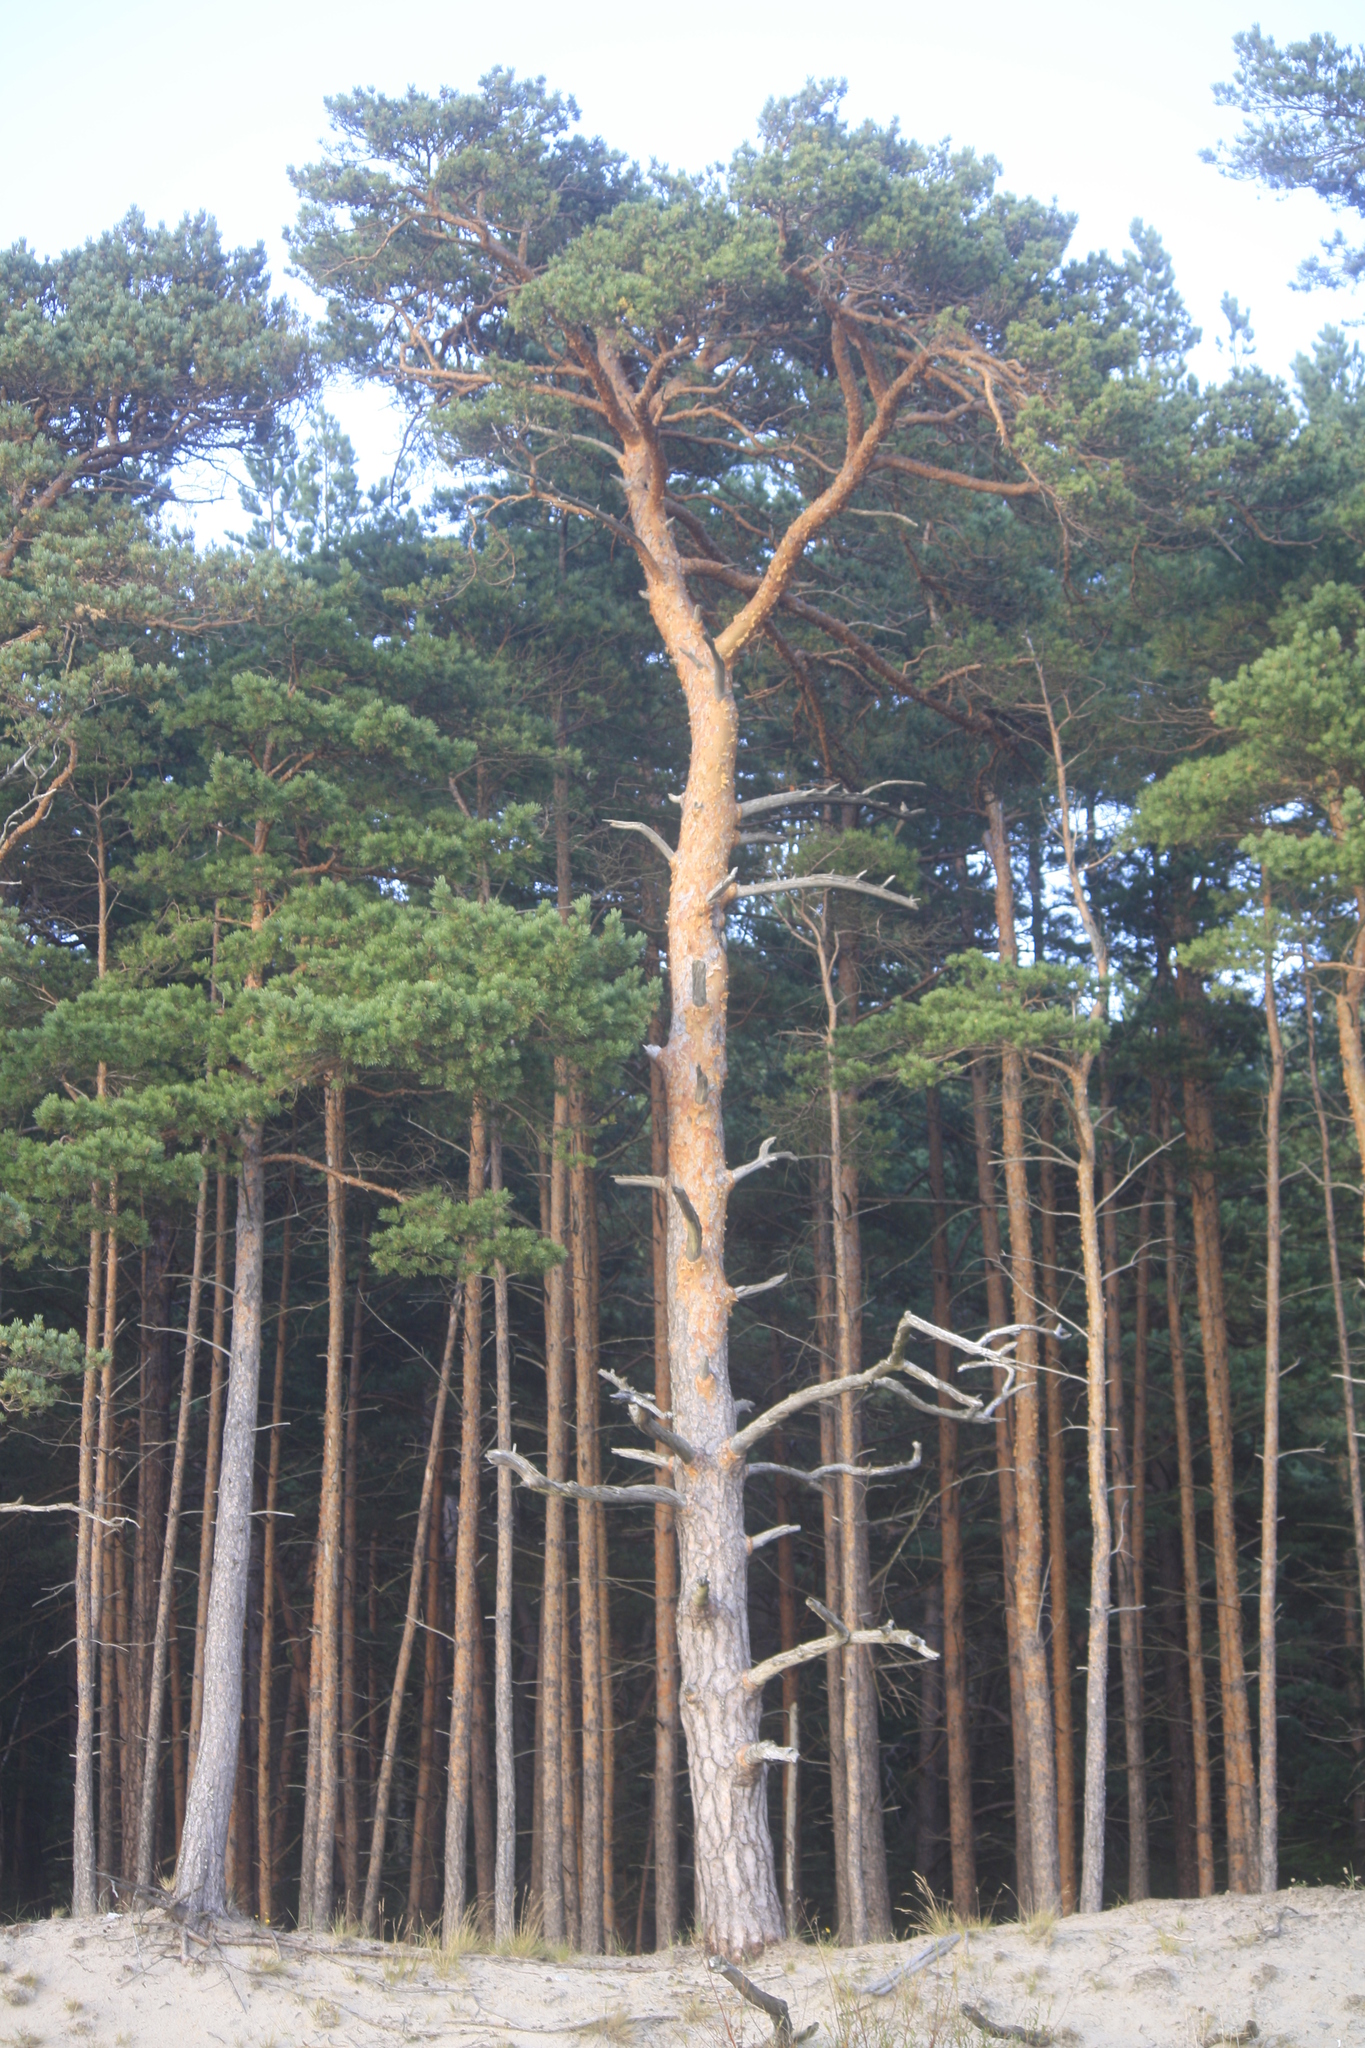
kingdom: Plantae
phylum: Tracheophyta
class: Pinopsida
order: Pinales
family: Pinaceae
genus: Pinus
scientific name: Pinus sylvestris
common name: Scots pine
